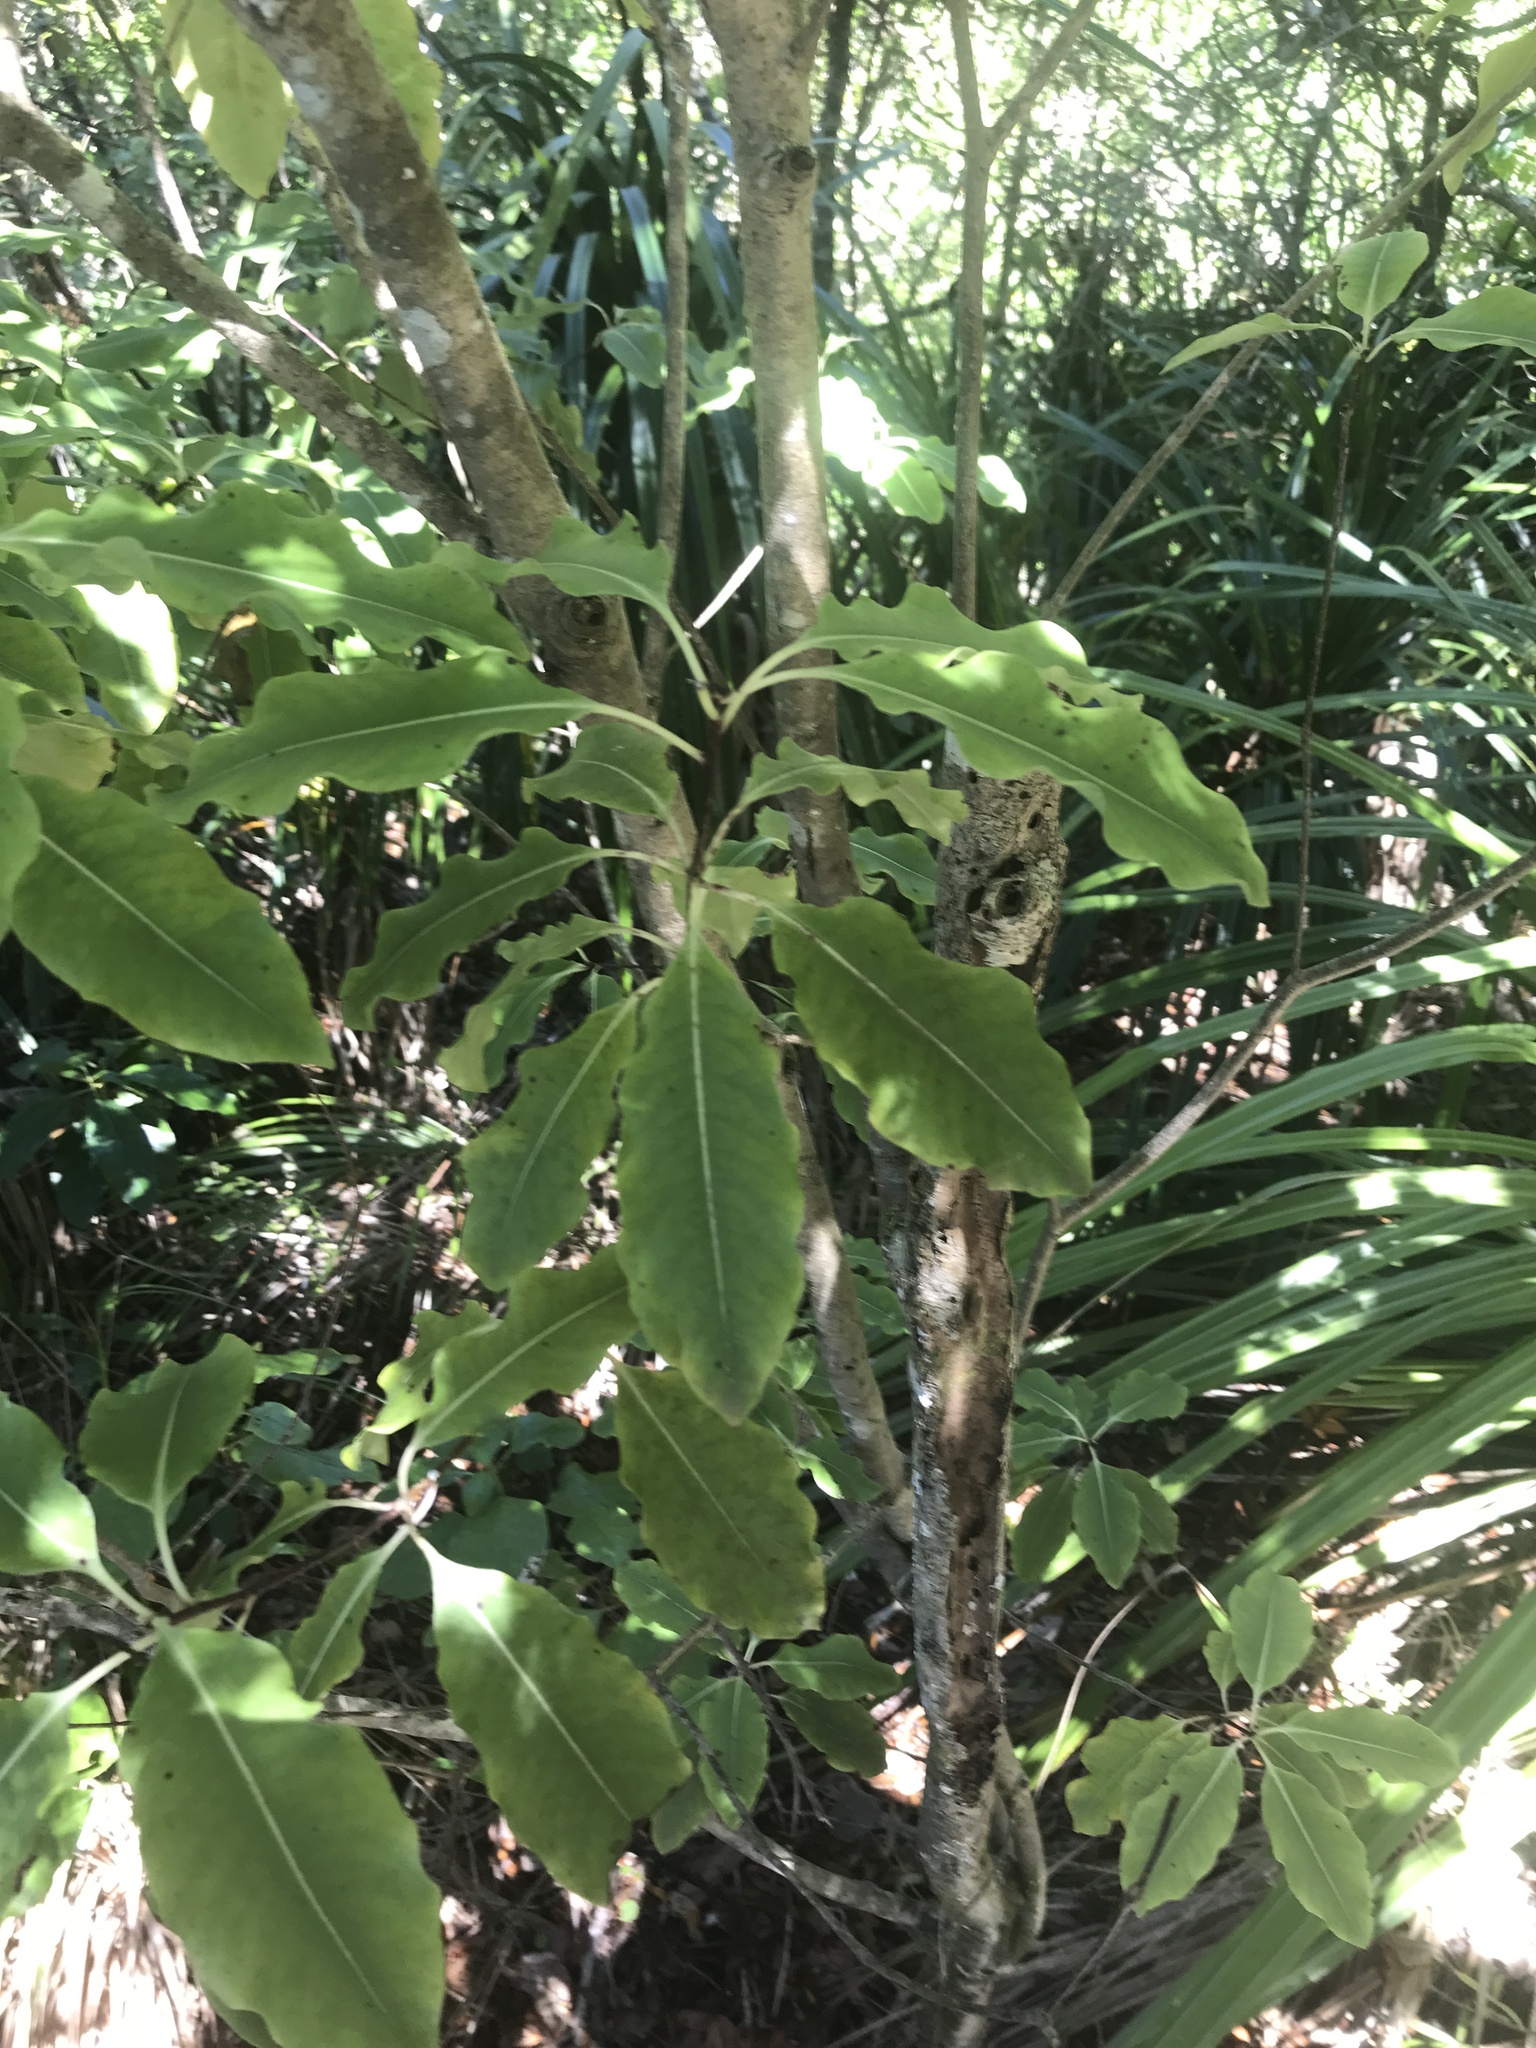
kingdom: Plantae
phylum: Tracheophyta
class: Magnoliopsida
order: Apiales
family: Pittosporaceae
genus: Pittosporum
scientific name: Pittosporum eugenioides
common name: Lemonwood
